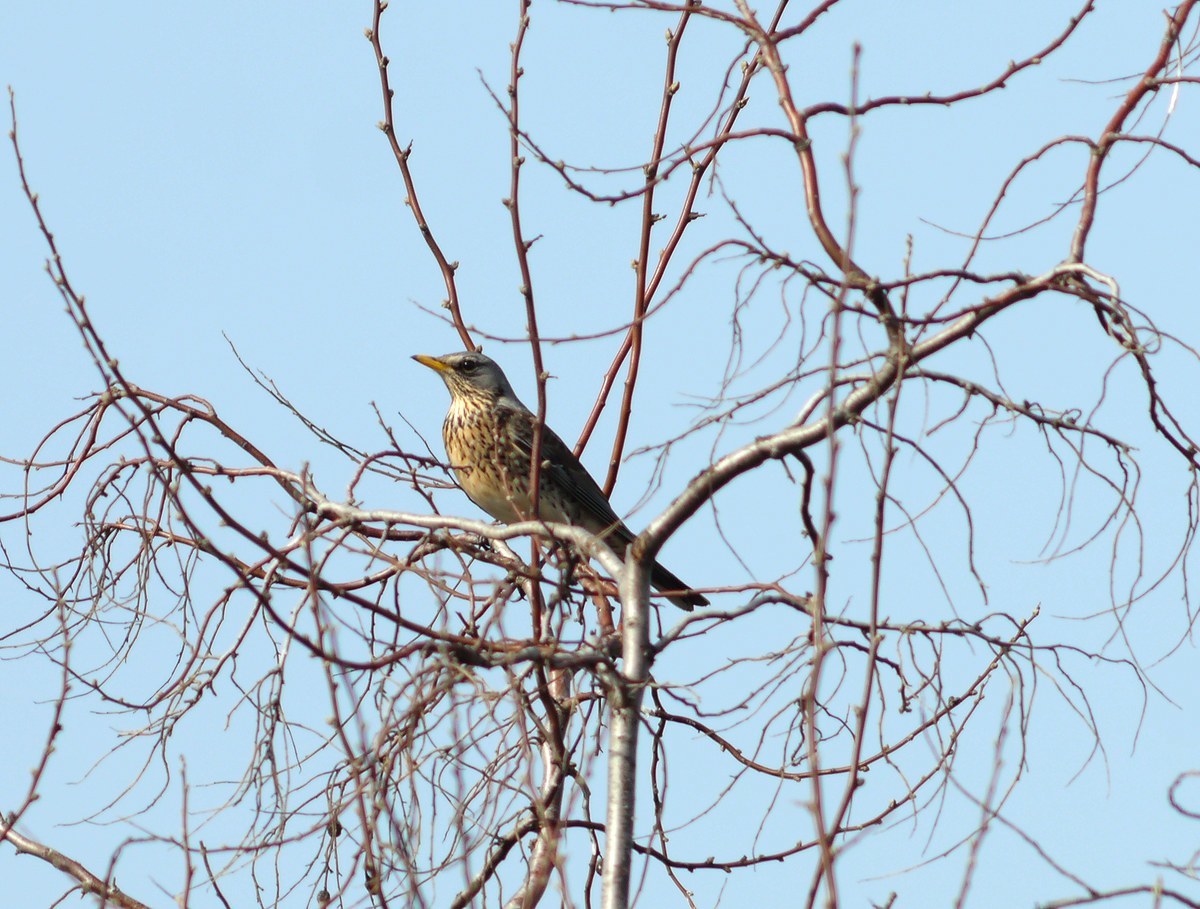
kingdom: Animalia
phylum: Chordata
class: Aves
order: Passeriformes
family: Turdidae
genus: Turdus
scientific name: Turdus pilaris
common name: Fieldfare
